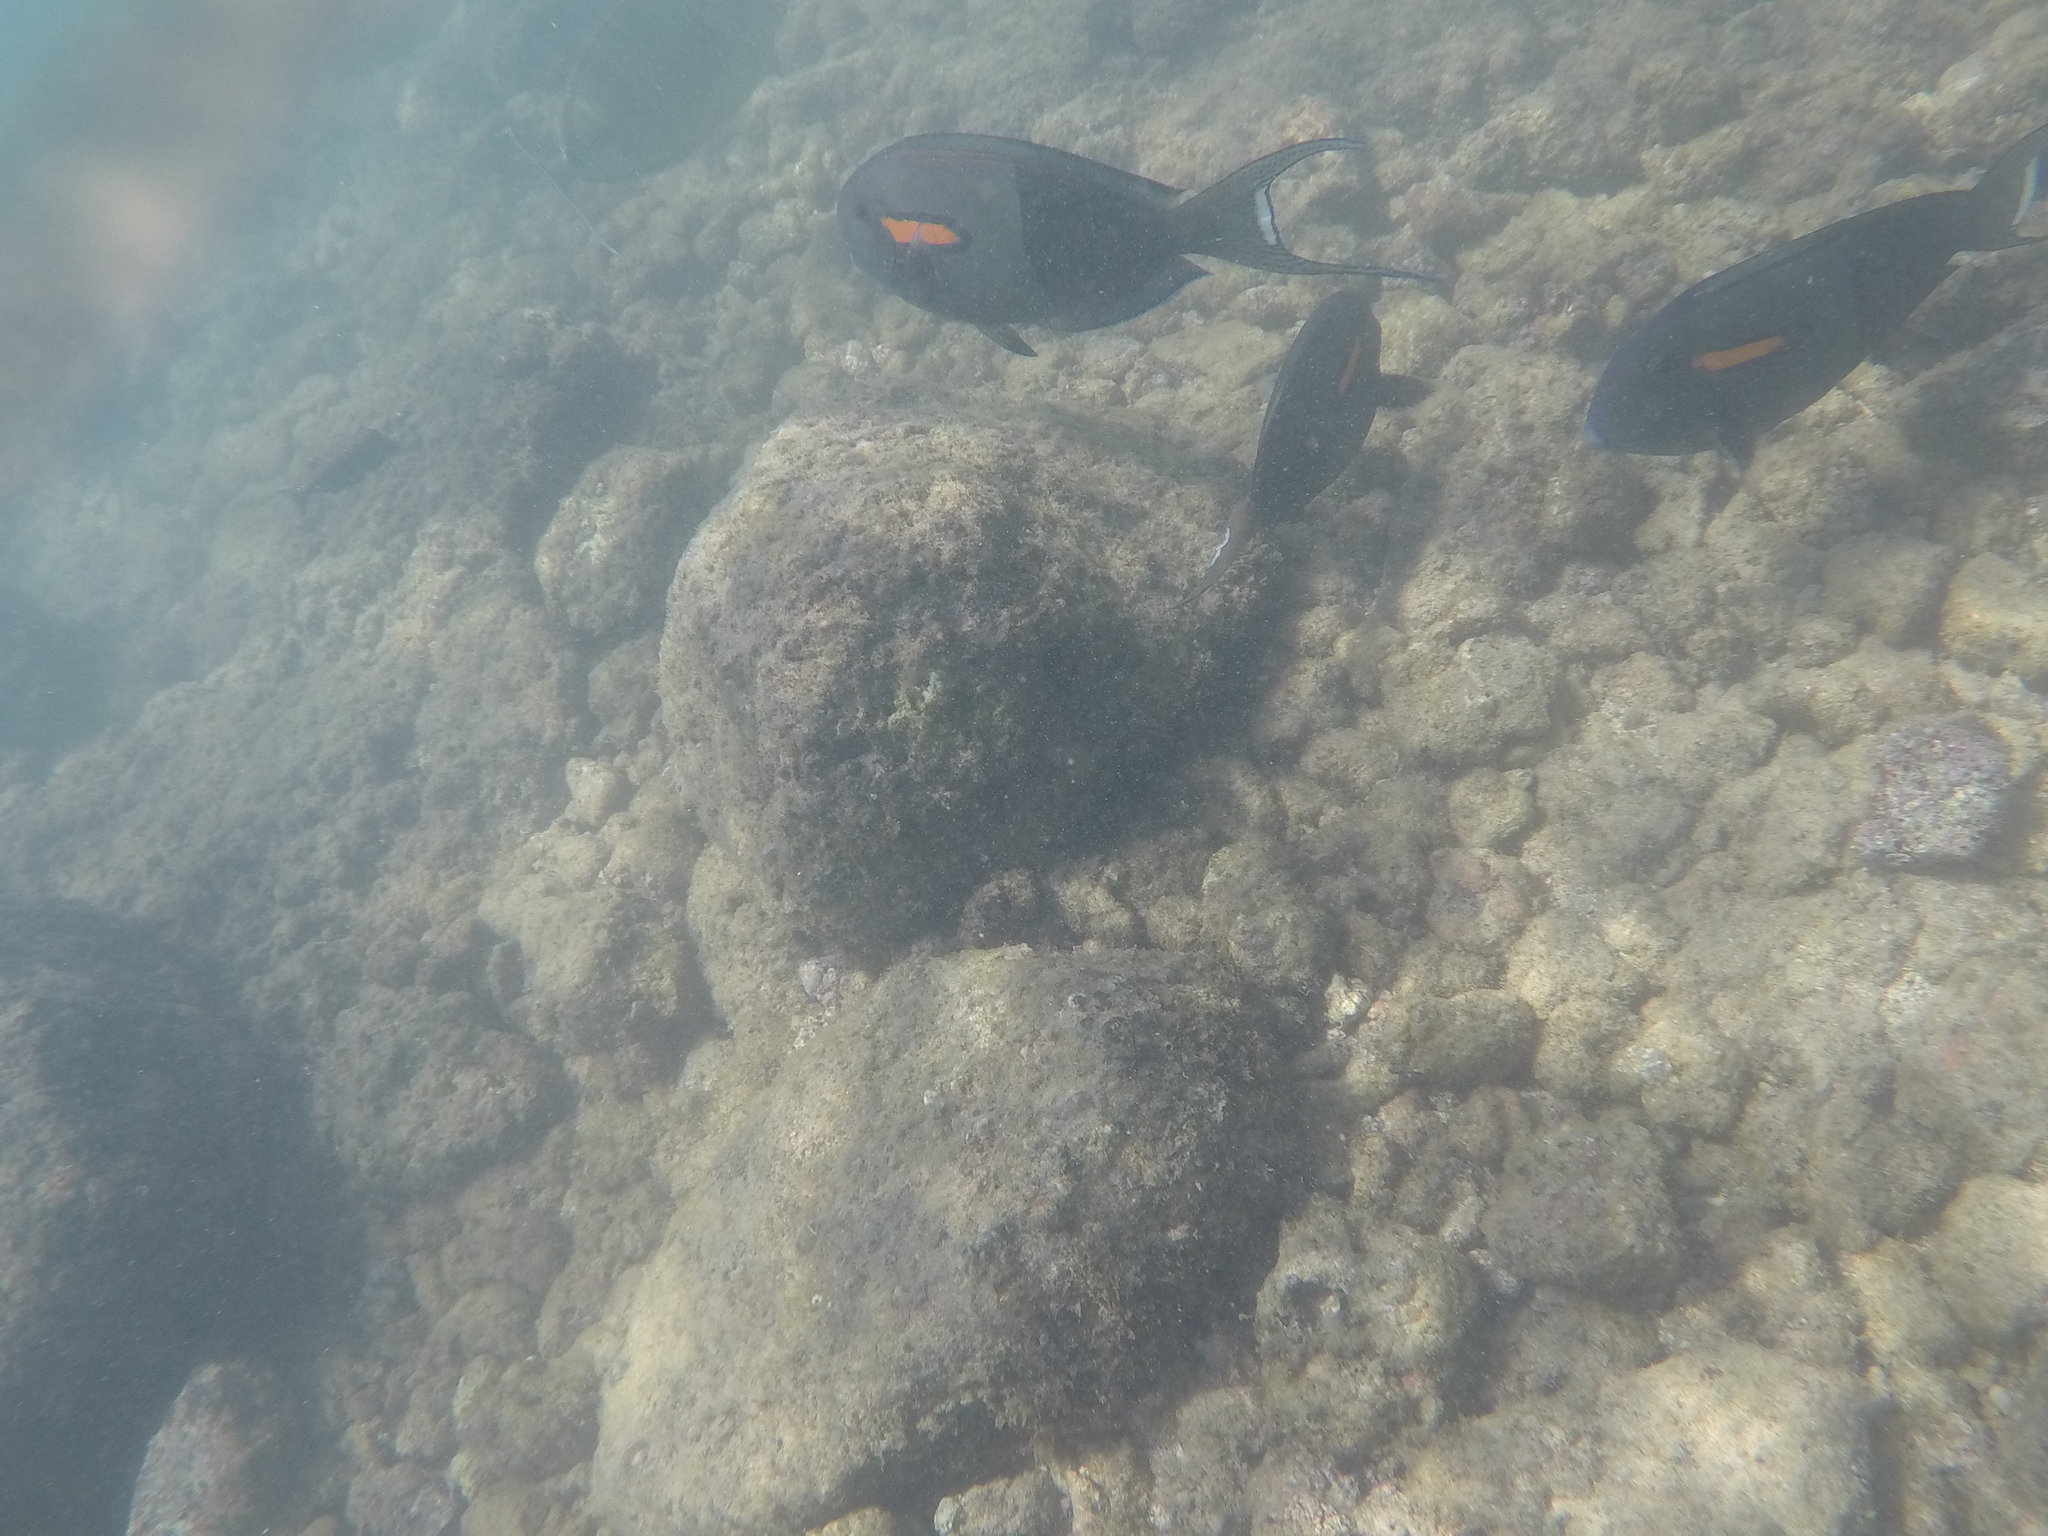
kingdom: Animalia
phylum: Chordata
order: Perciformes
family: Acanthuridae
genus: Acanthurus
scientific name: Acanthurus olivaceus
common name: Gendarme fish
